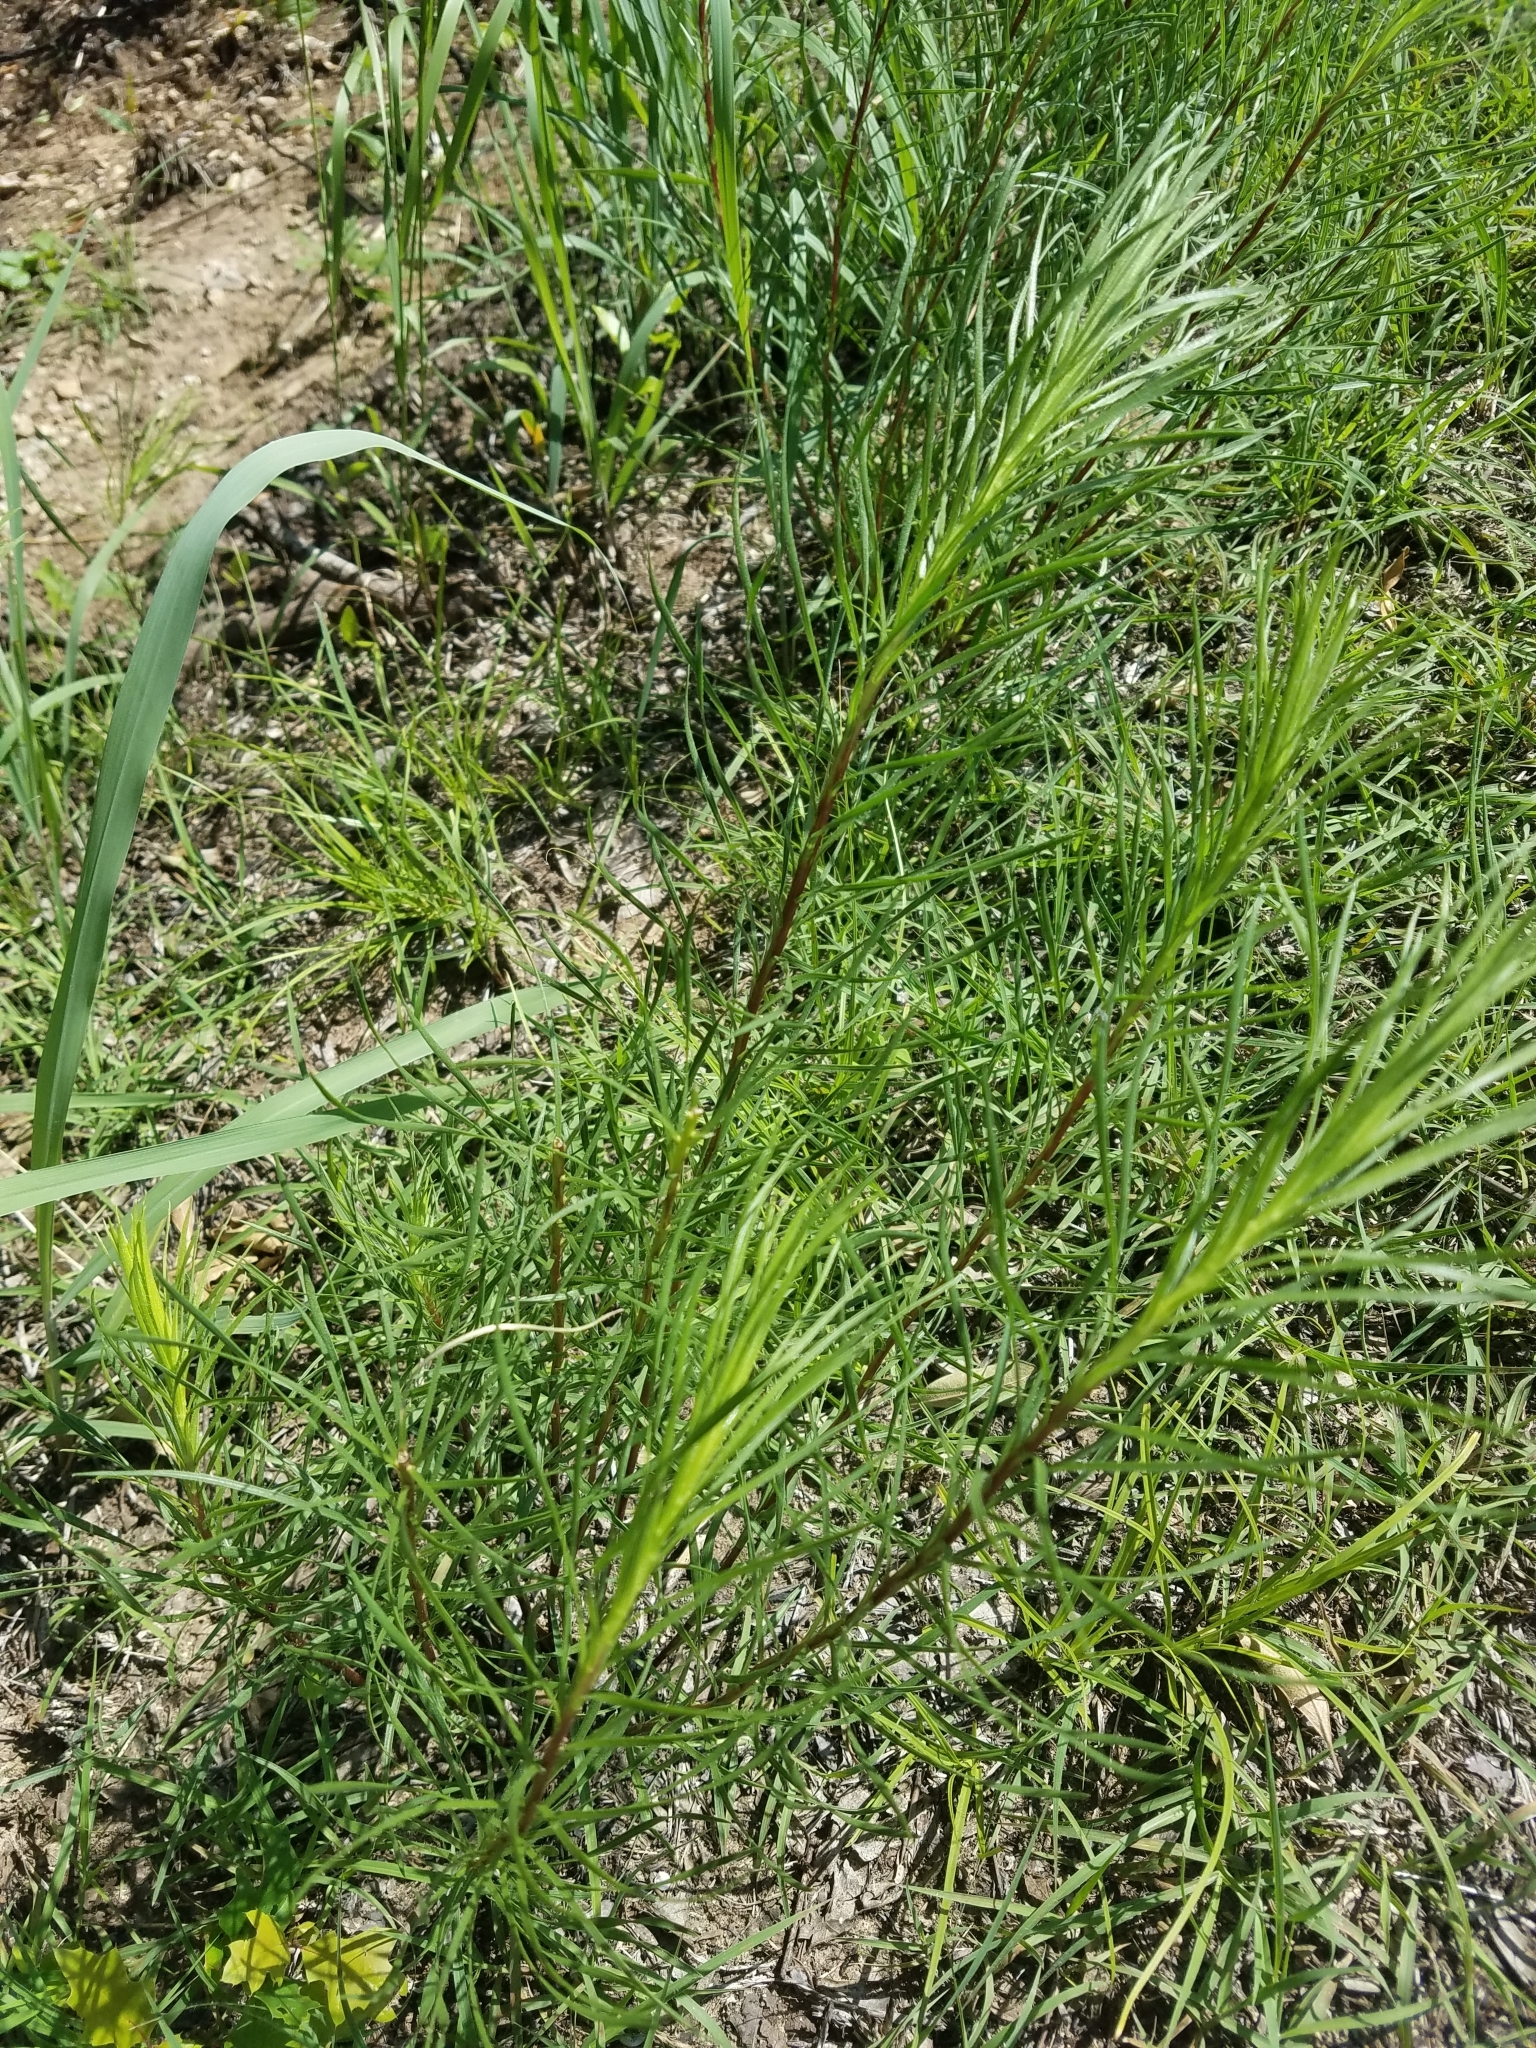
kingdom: Plantae
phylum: Tracheophyta
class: Magnoliopsida
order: Asterales
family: Asteraceae
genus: Liatris
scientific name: Liatris punctata
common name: Dotted gayfeather
